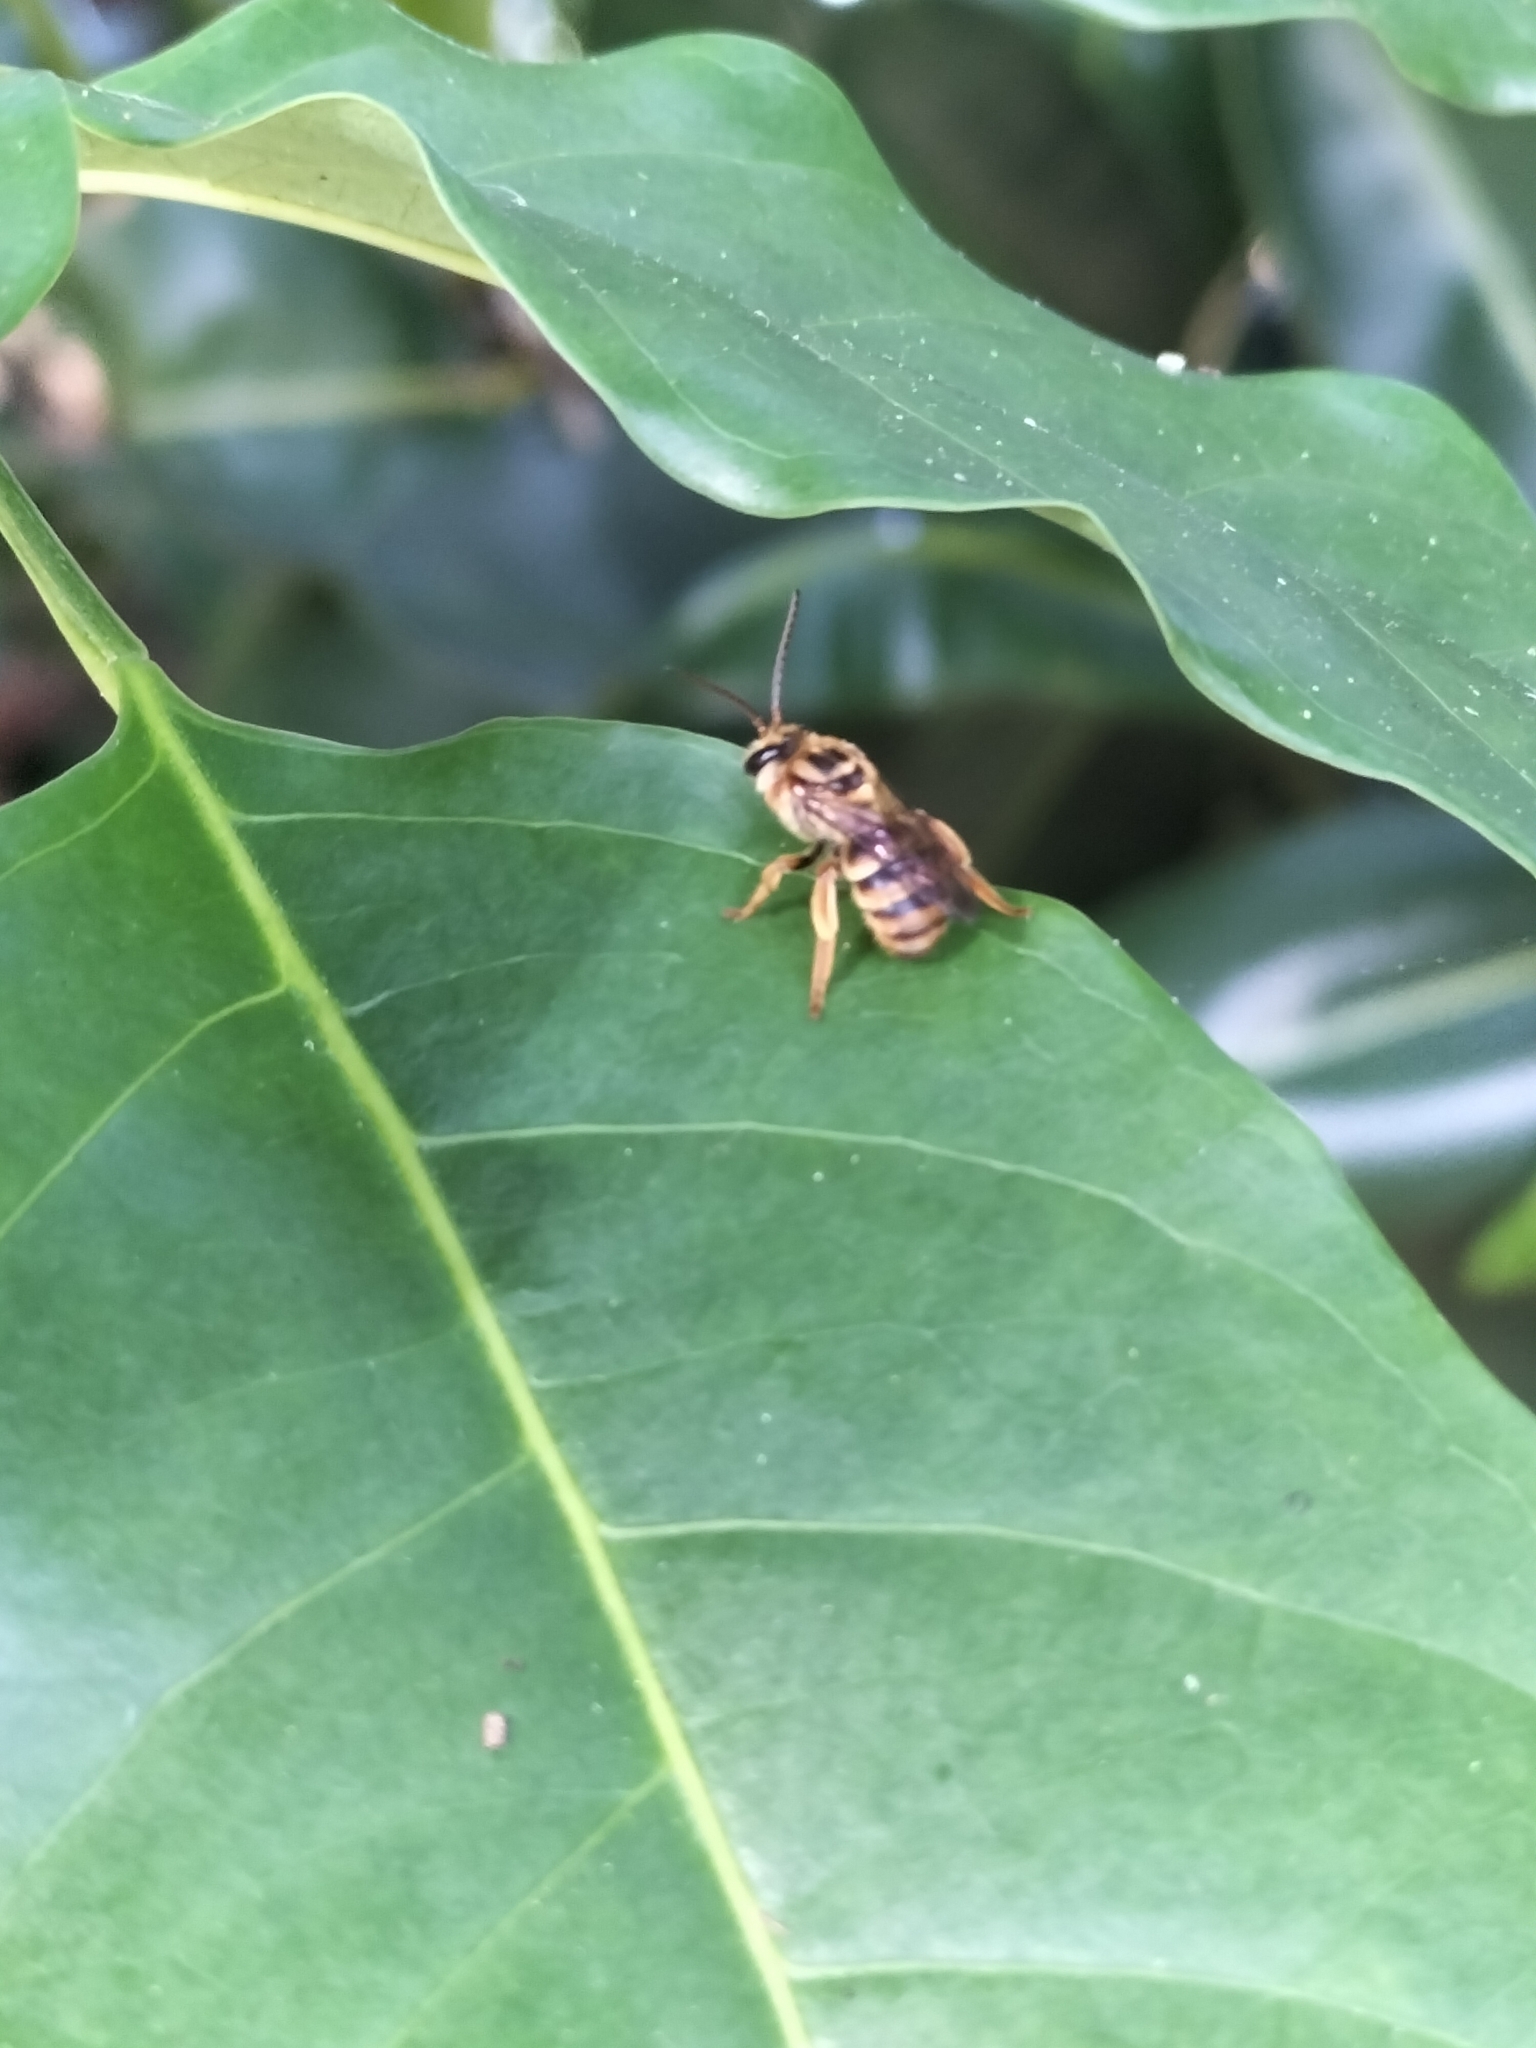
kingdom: Animalia
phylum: Arthropoda
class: Insecta
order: Hymenoptera
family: Halictidae
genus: Mellitidia
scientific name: Mellitidia tomentifera
